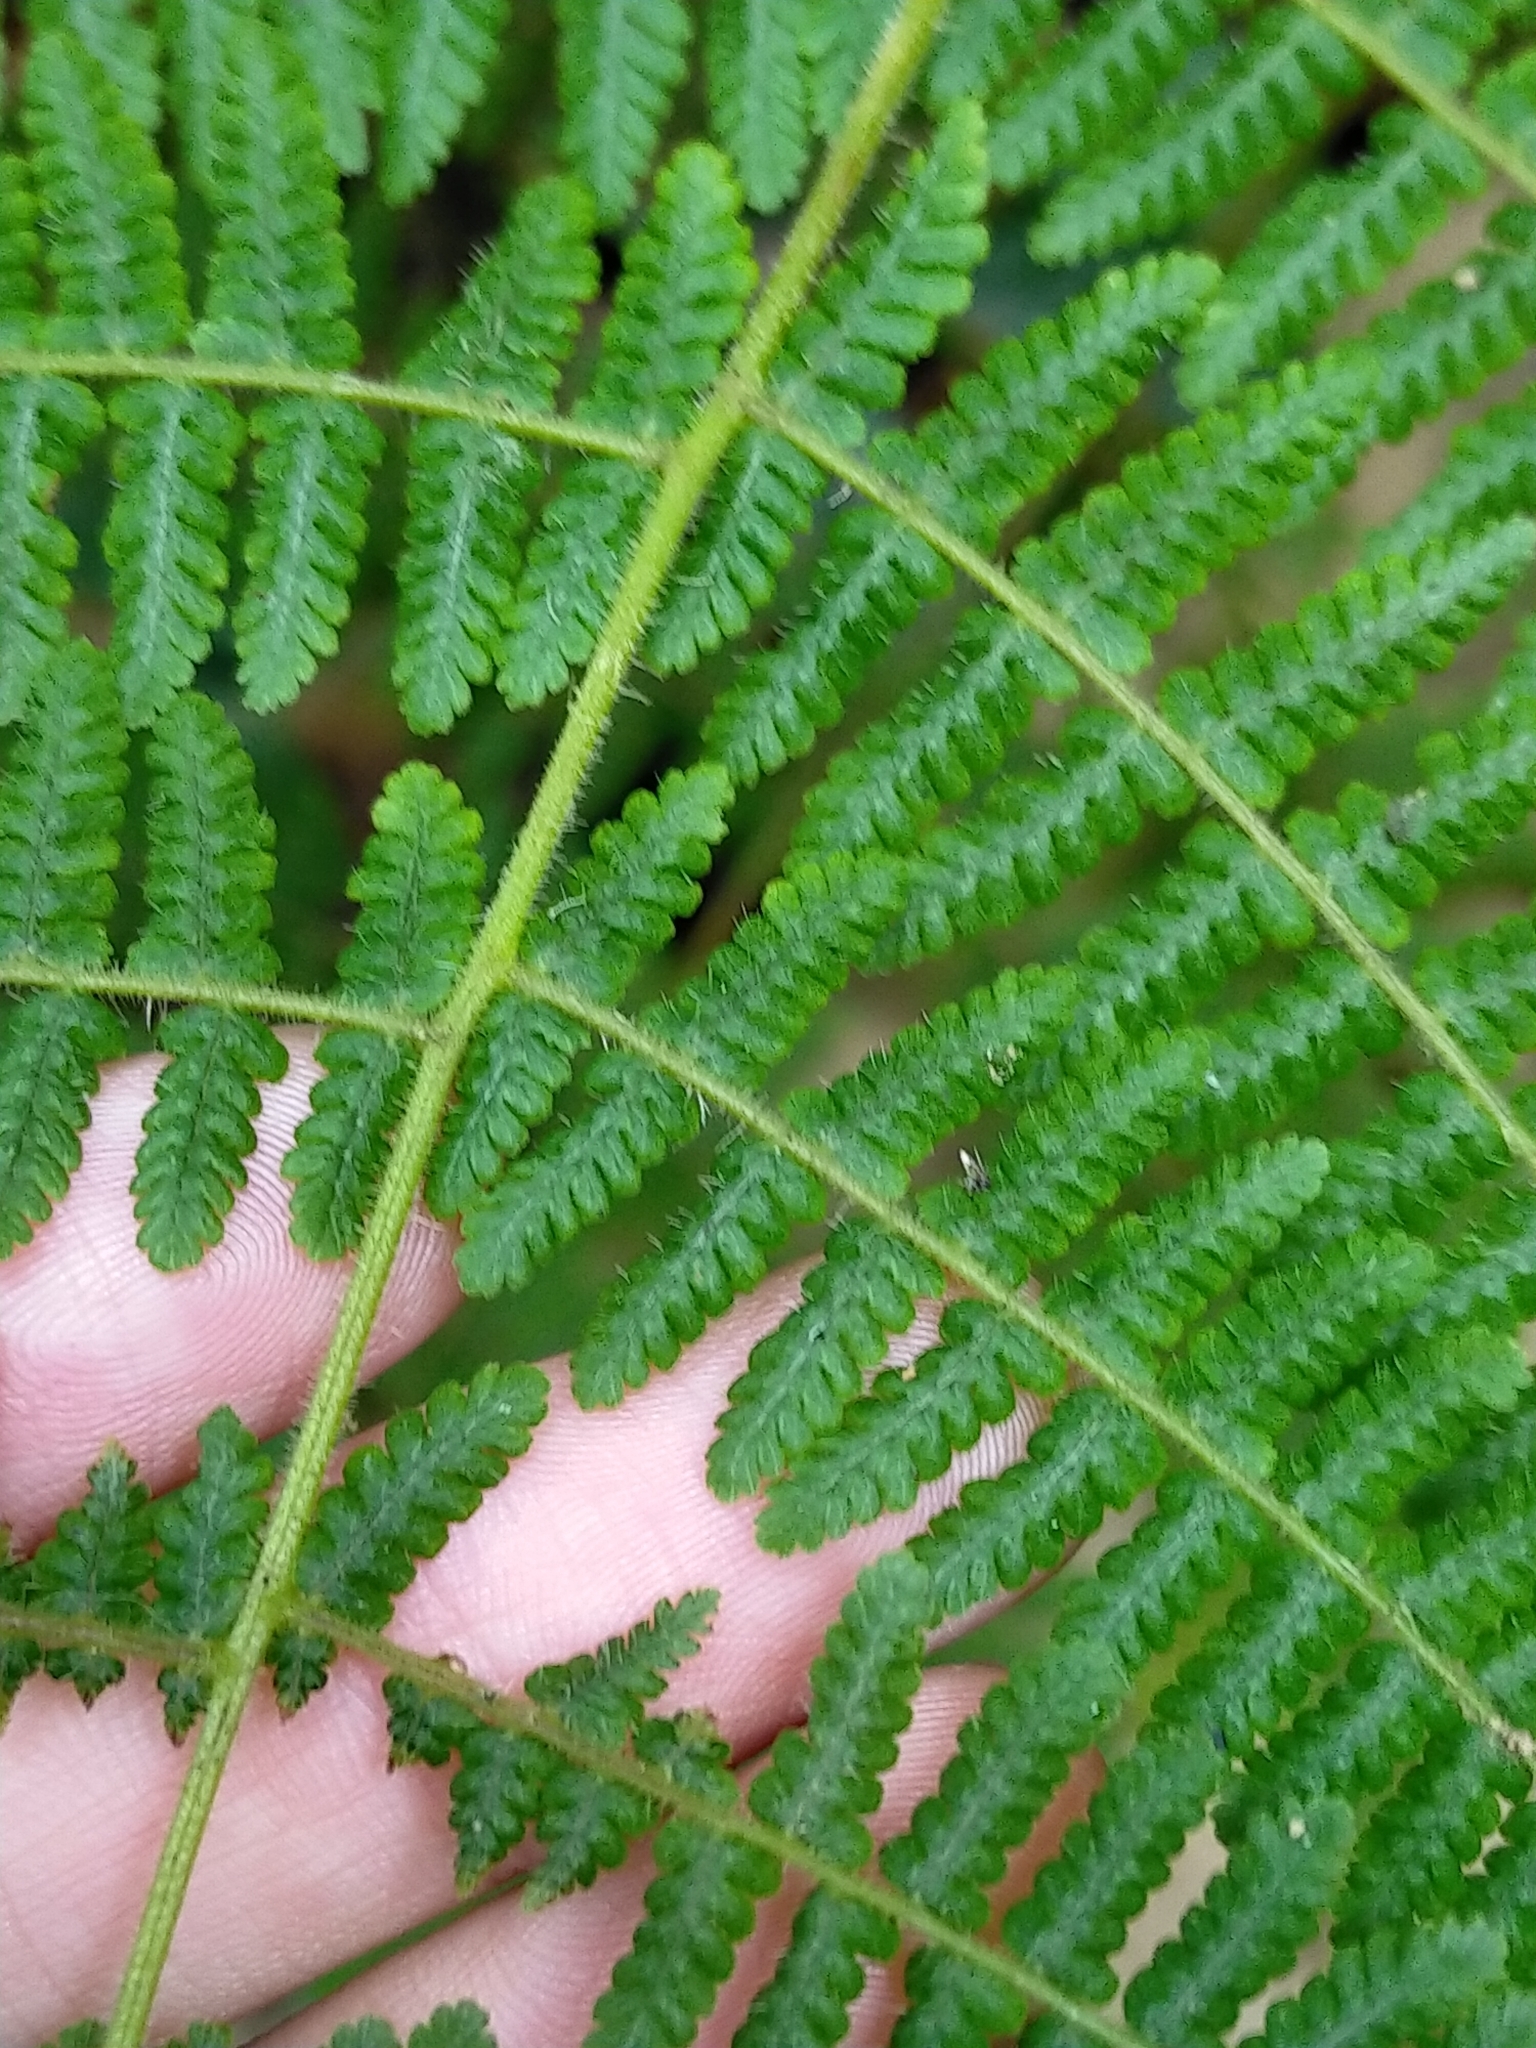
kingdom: Plantae
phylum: Tracheophyta
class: Polypodiopsida
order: Polypodiales
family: Cystopteridaceae
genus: Acystopteris
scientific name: Acystopteris tenuisecta
